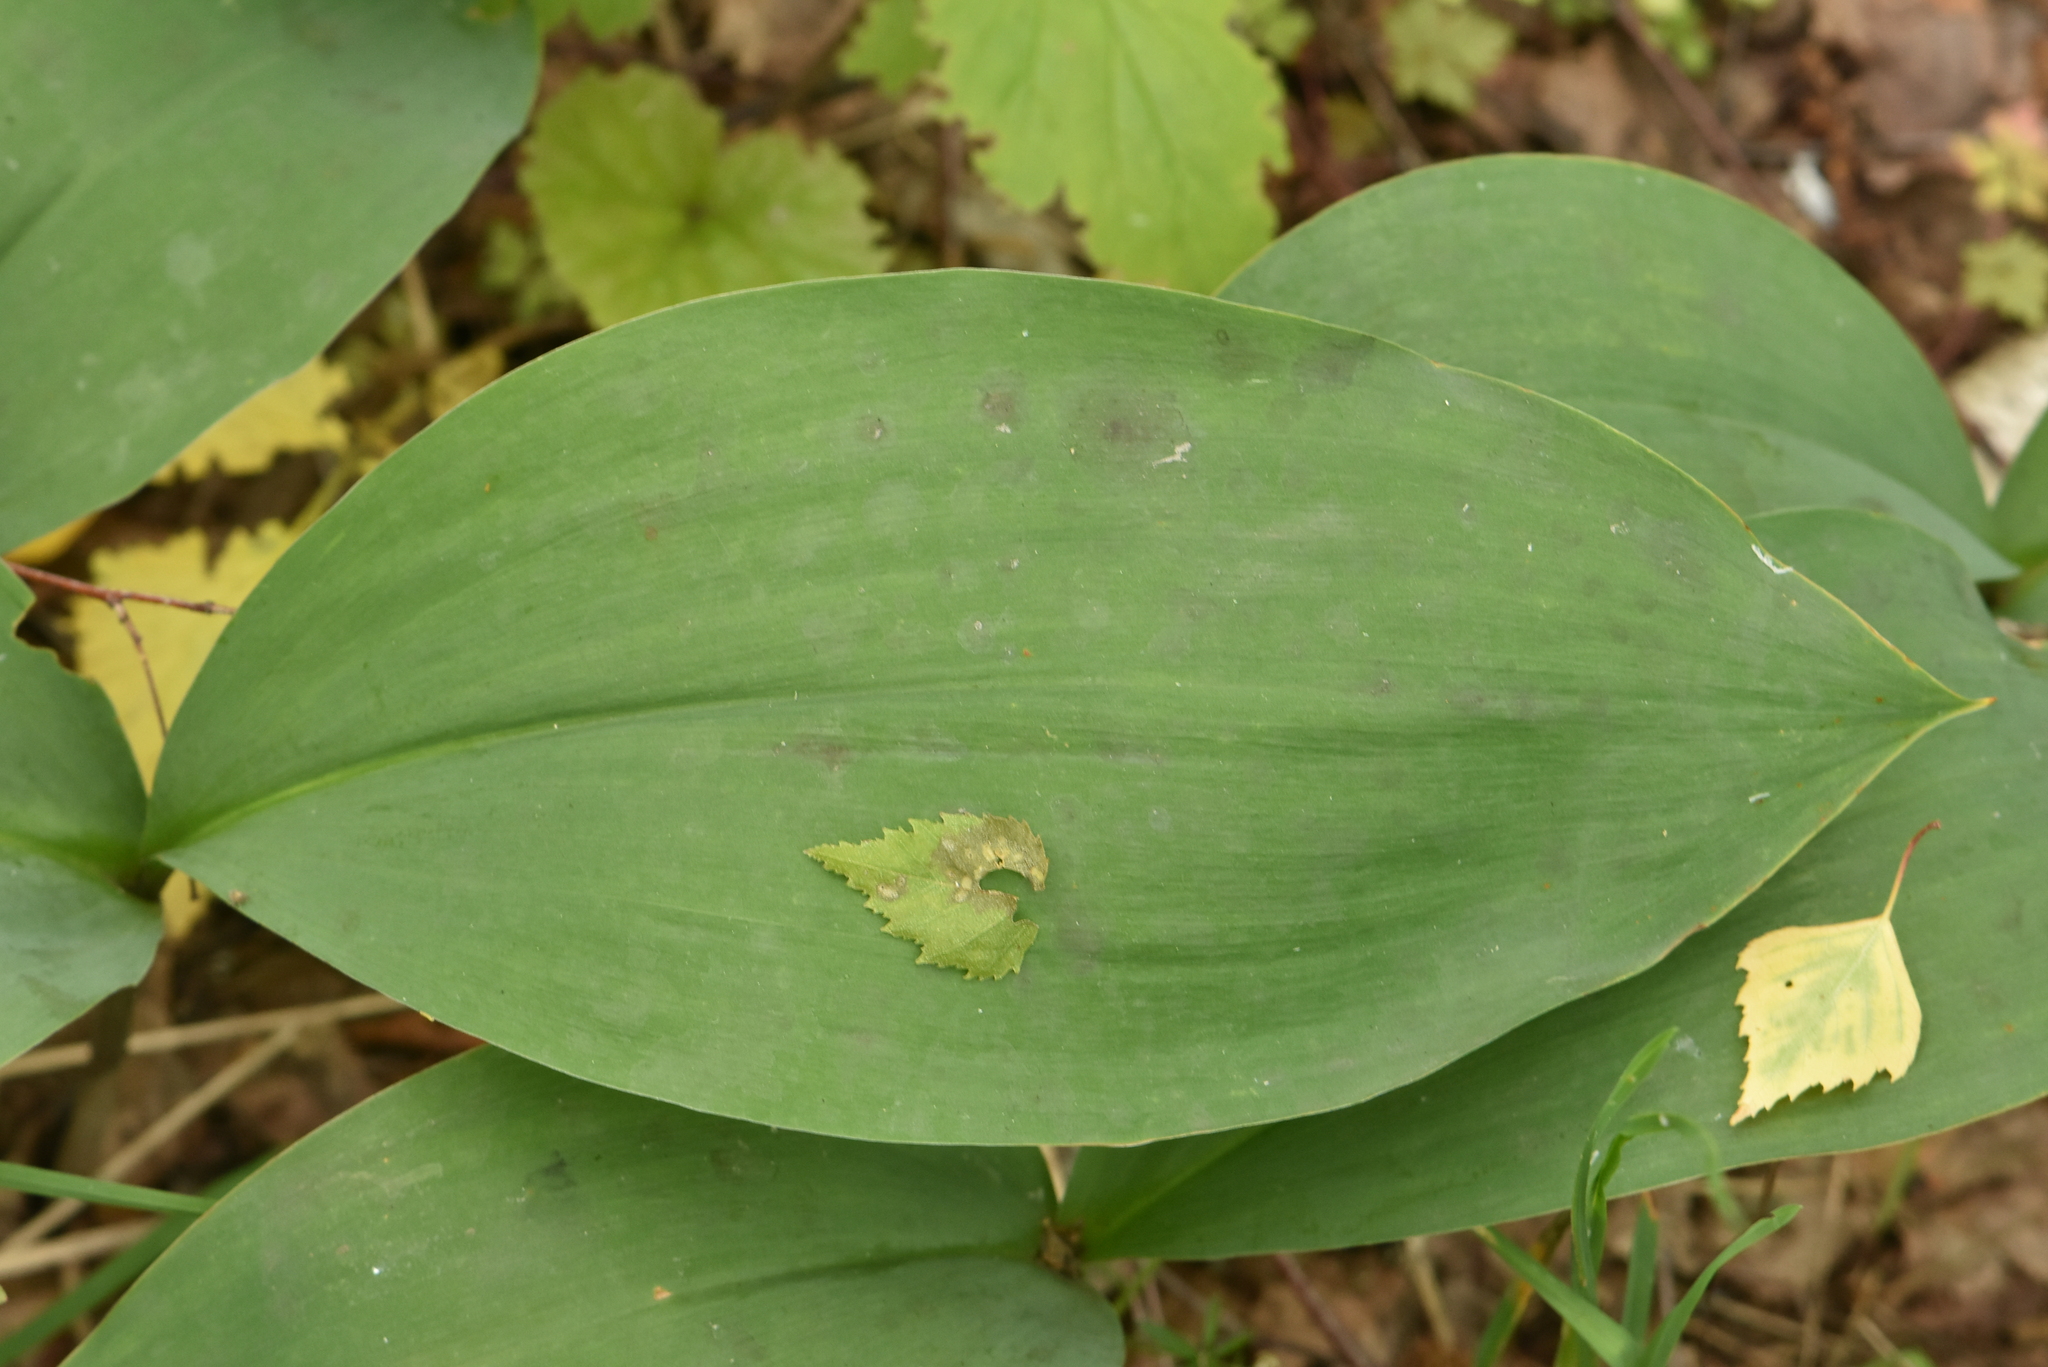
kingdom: Plantae
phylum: Tracheophyta
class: Liliopsida
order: Asparagales
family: Asparagaceae
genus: Convallaria
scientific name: Convallaria majalis
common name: Lily-of-the-valley
